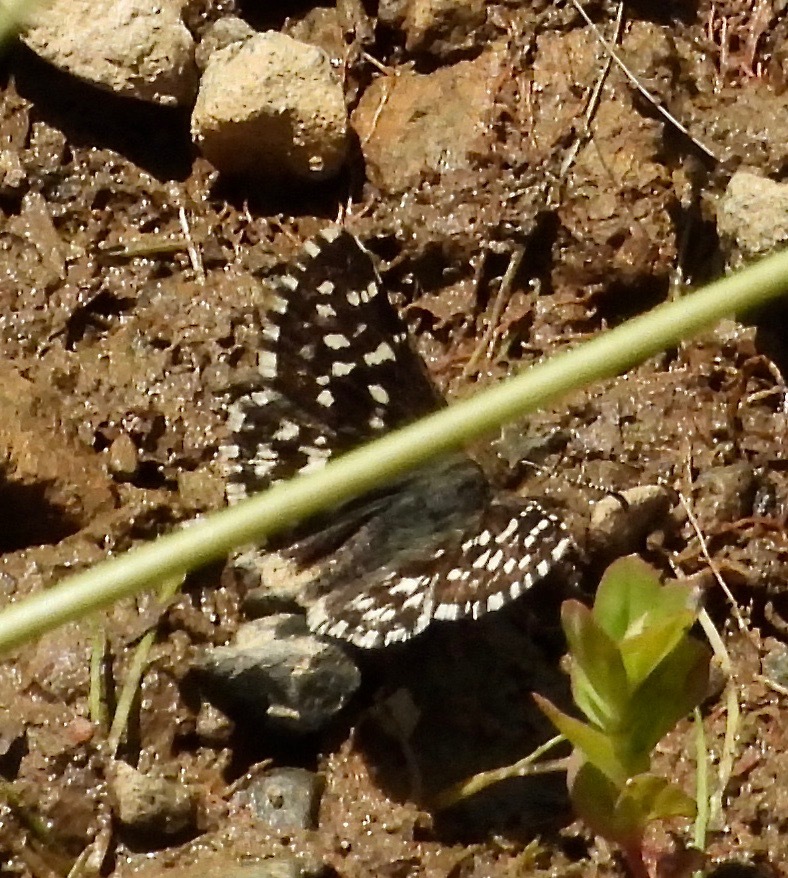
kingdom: Animalia
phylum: Arthropoda
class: Insecta
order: Lepidoptera
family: Hesperiidae
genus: Pyrgus
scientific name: Pyrgus ruralis
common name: Two-banded checkered-skipper
